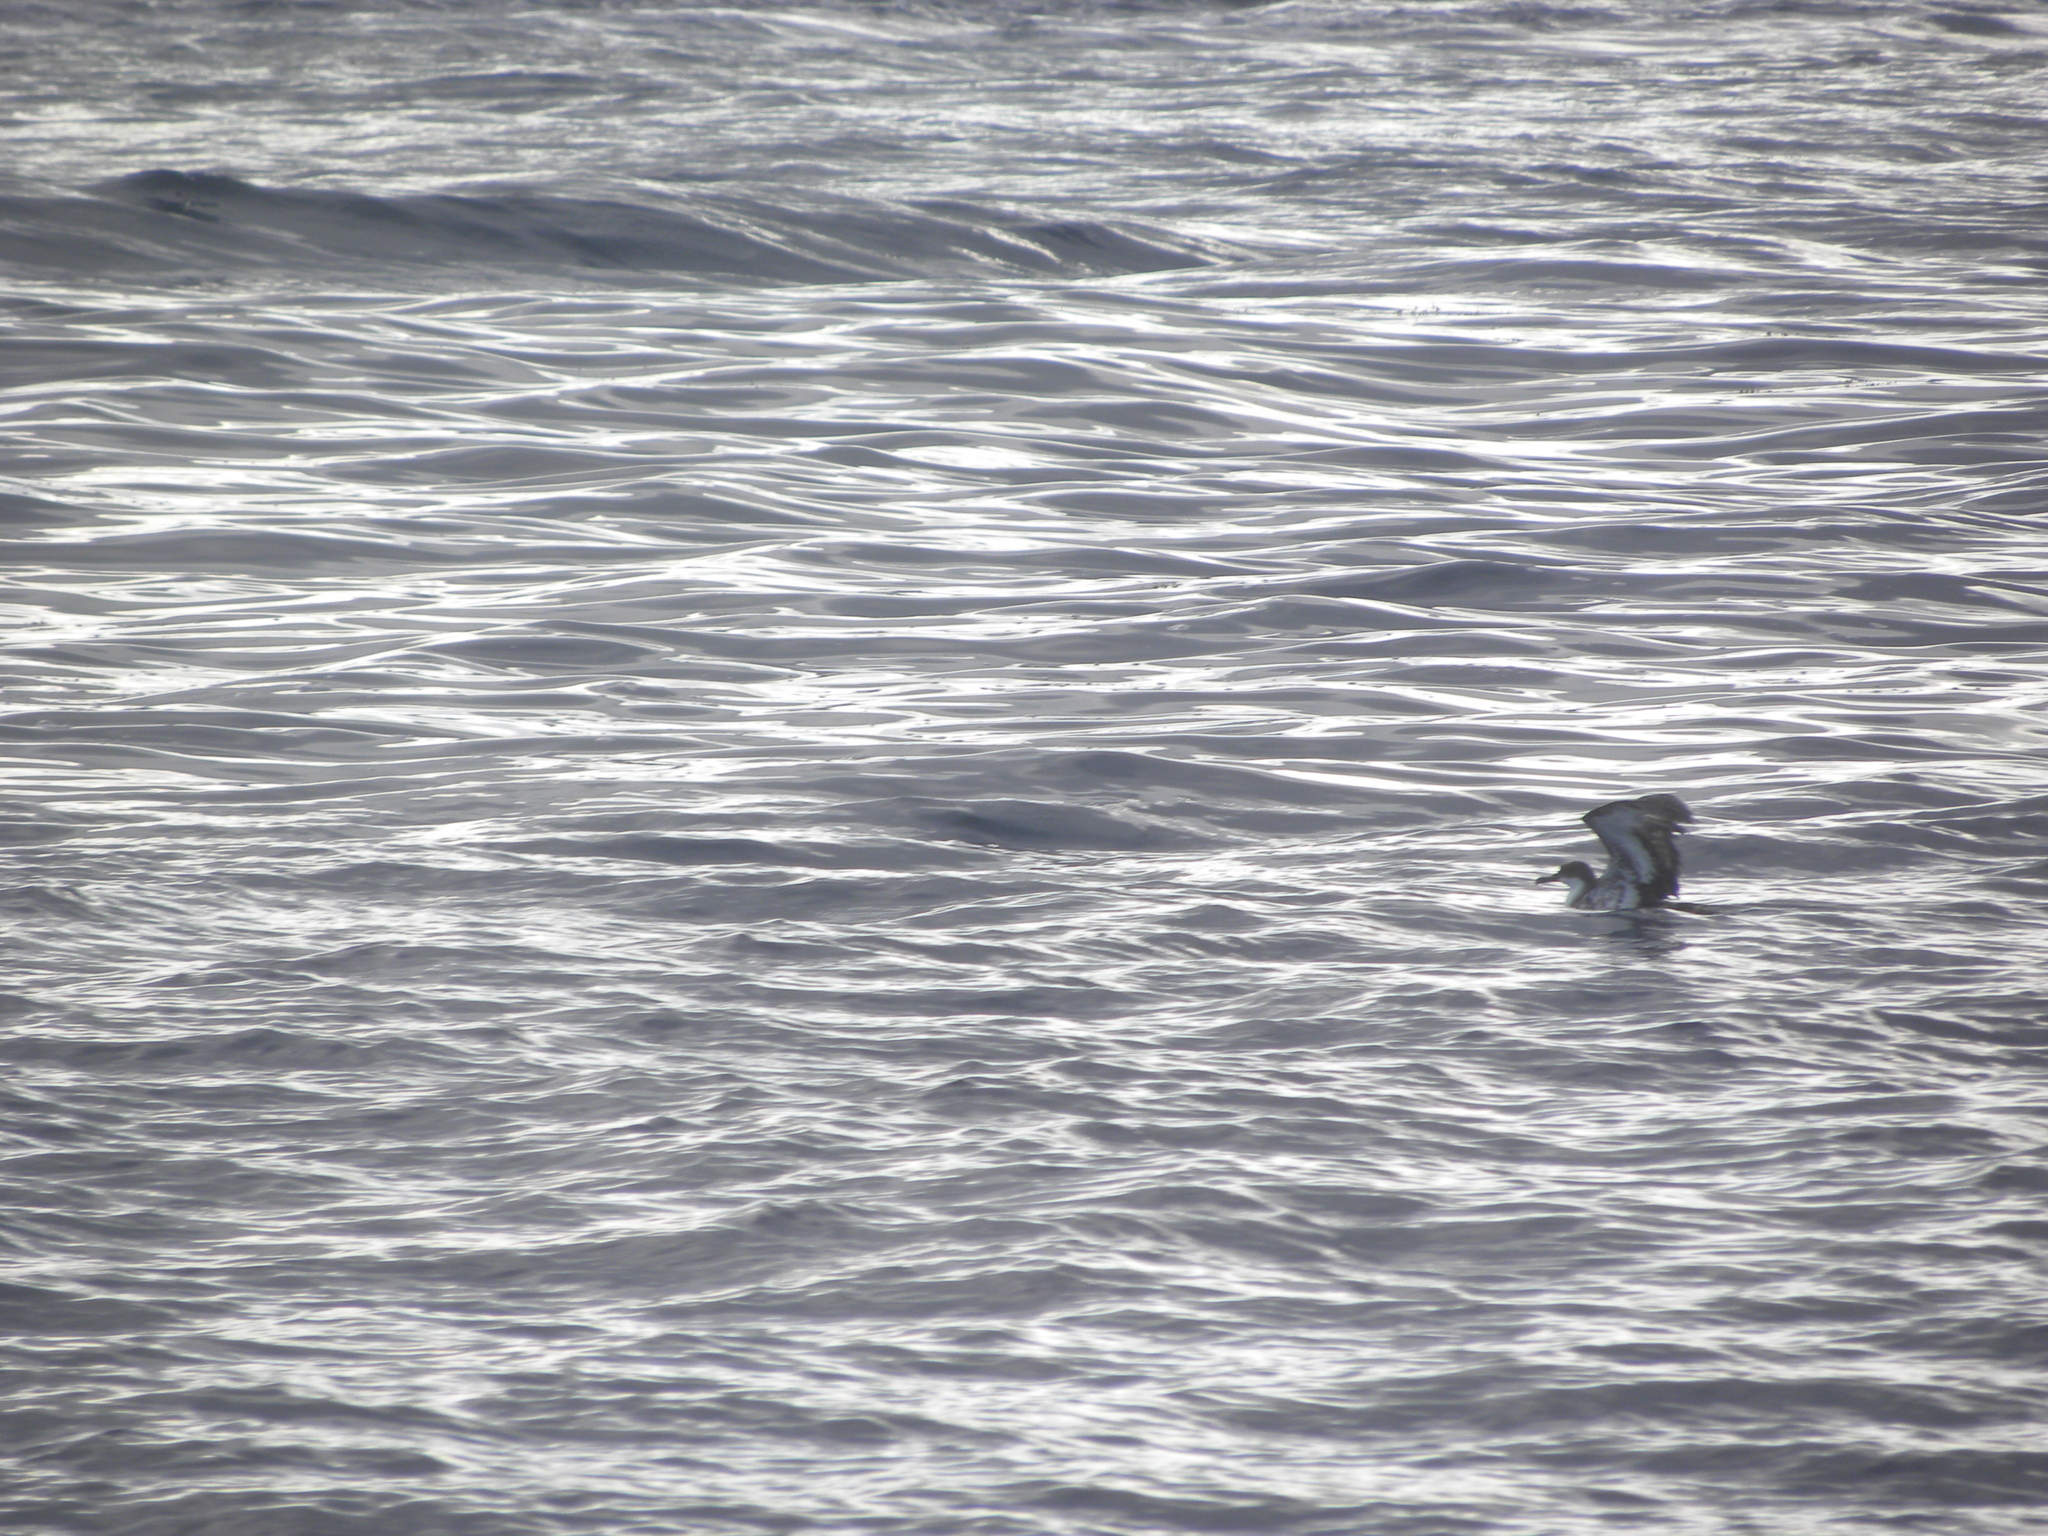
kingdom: Animalia
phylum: Chordata
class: Aves
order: Procellariiformes
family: Procellariidae
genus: Puffinus
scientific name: Puffinus gravis
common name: Great shearwater
